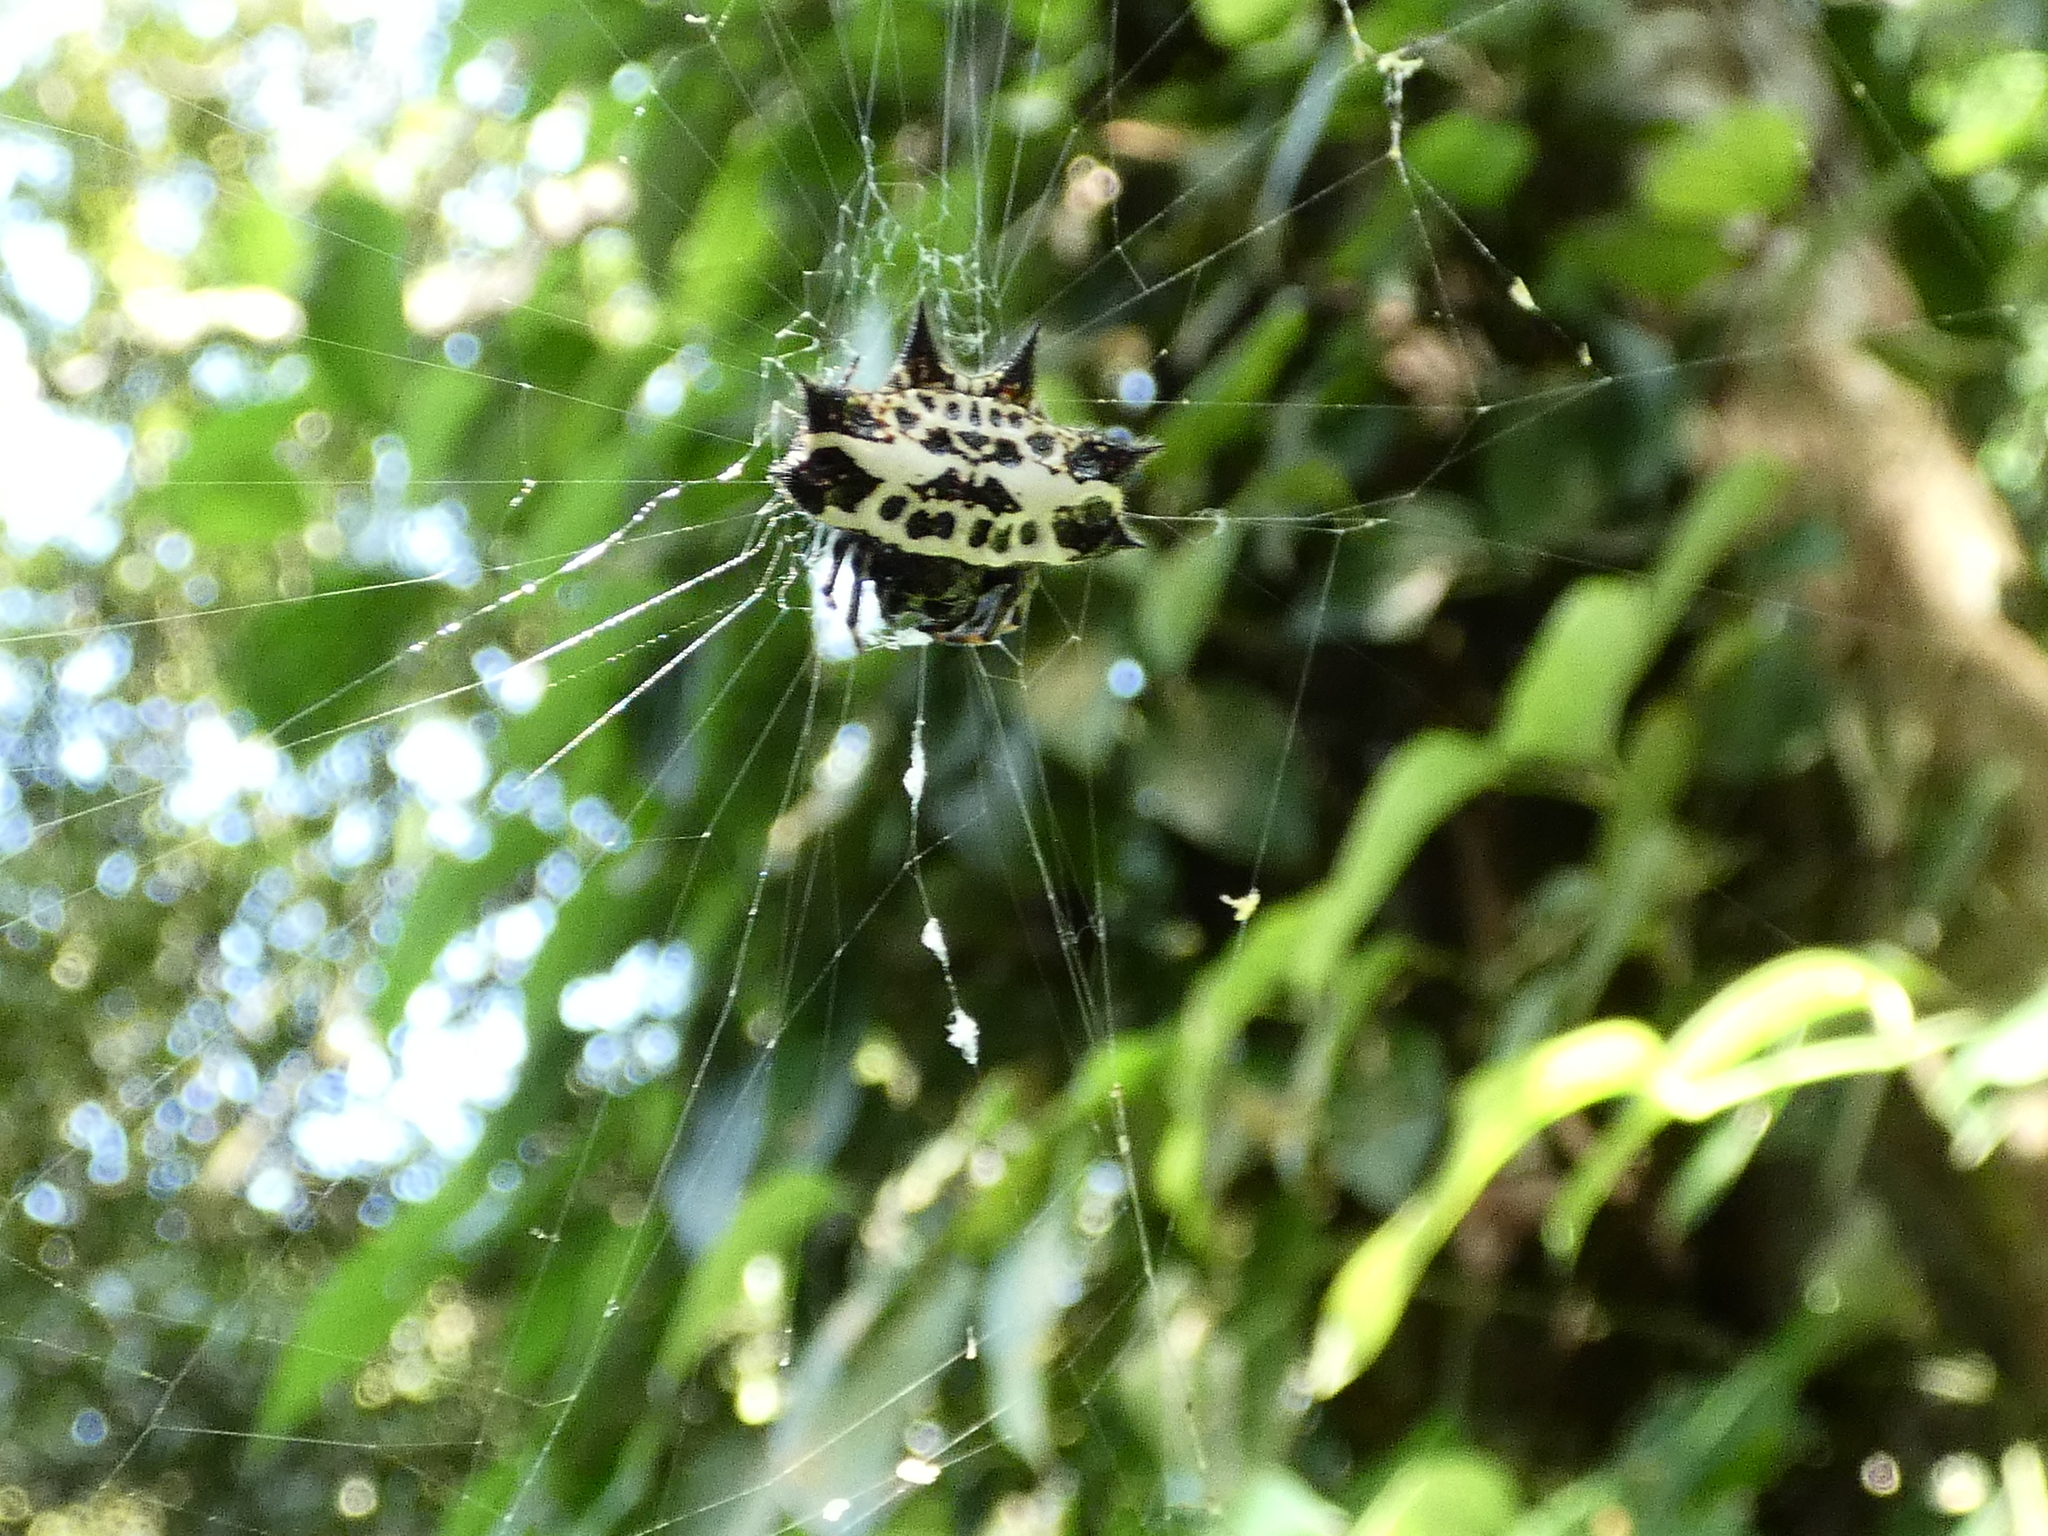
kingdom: Animalia
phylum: Arthropoda
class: Arachnida
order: Araneae
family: Araneidae
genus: Gasteracantha
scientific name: Gasteracantha cancriformis
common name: Orb weavers
